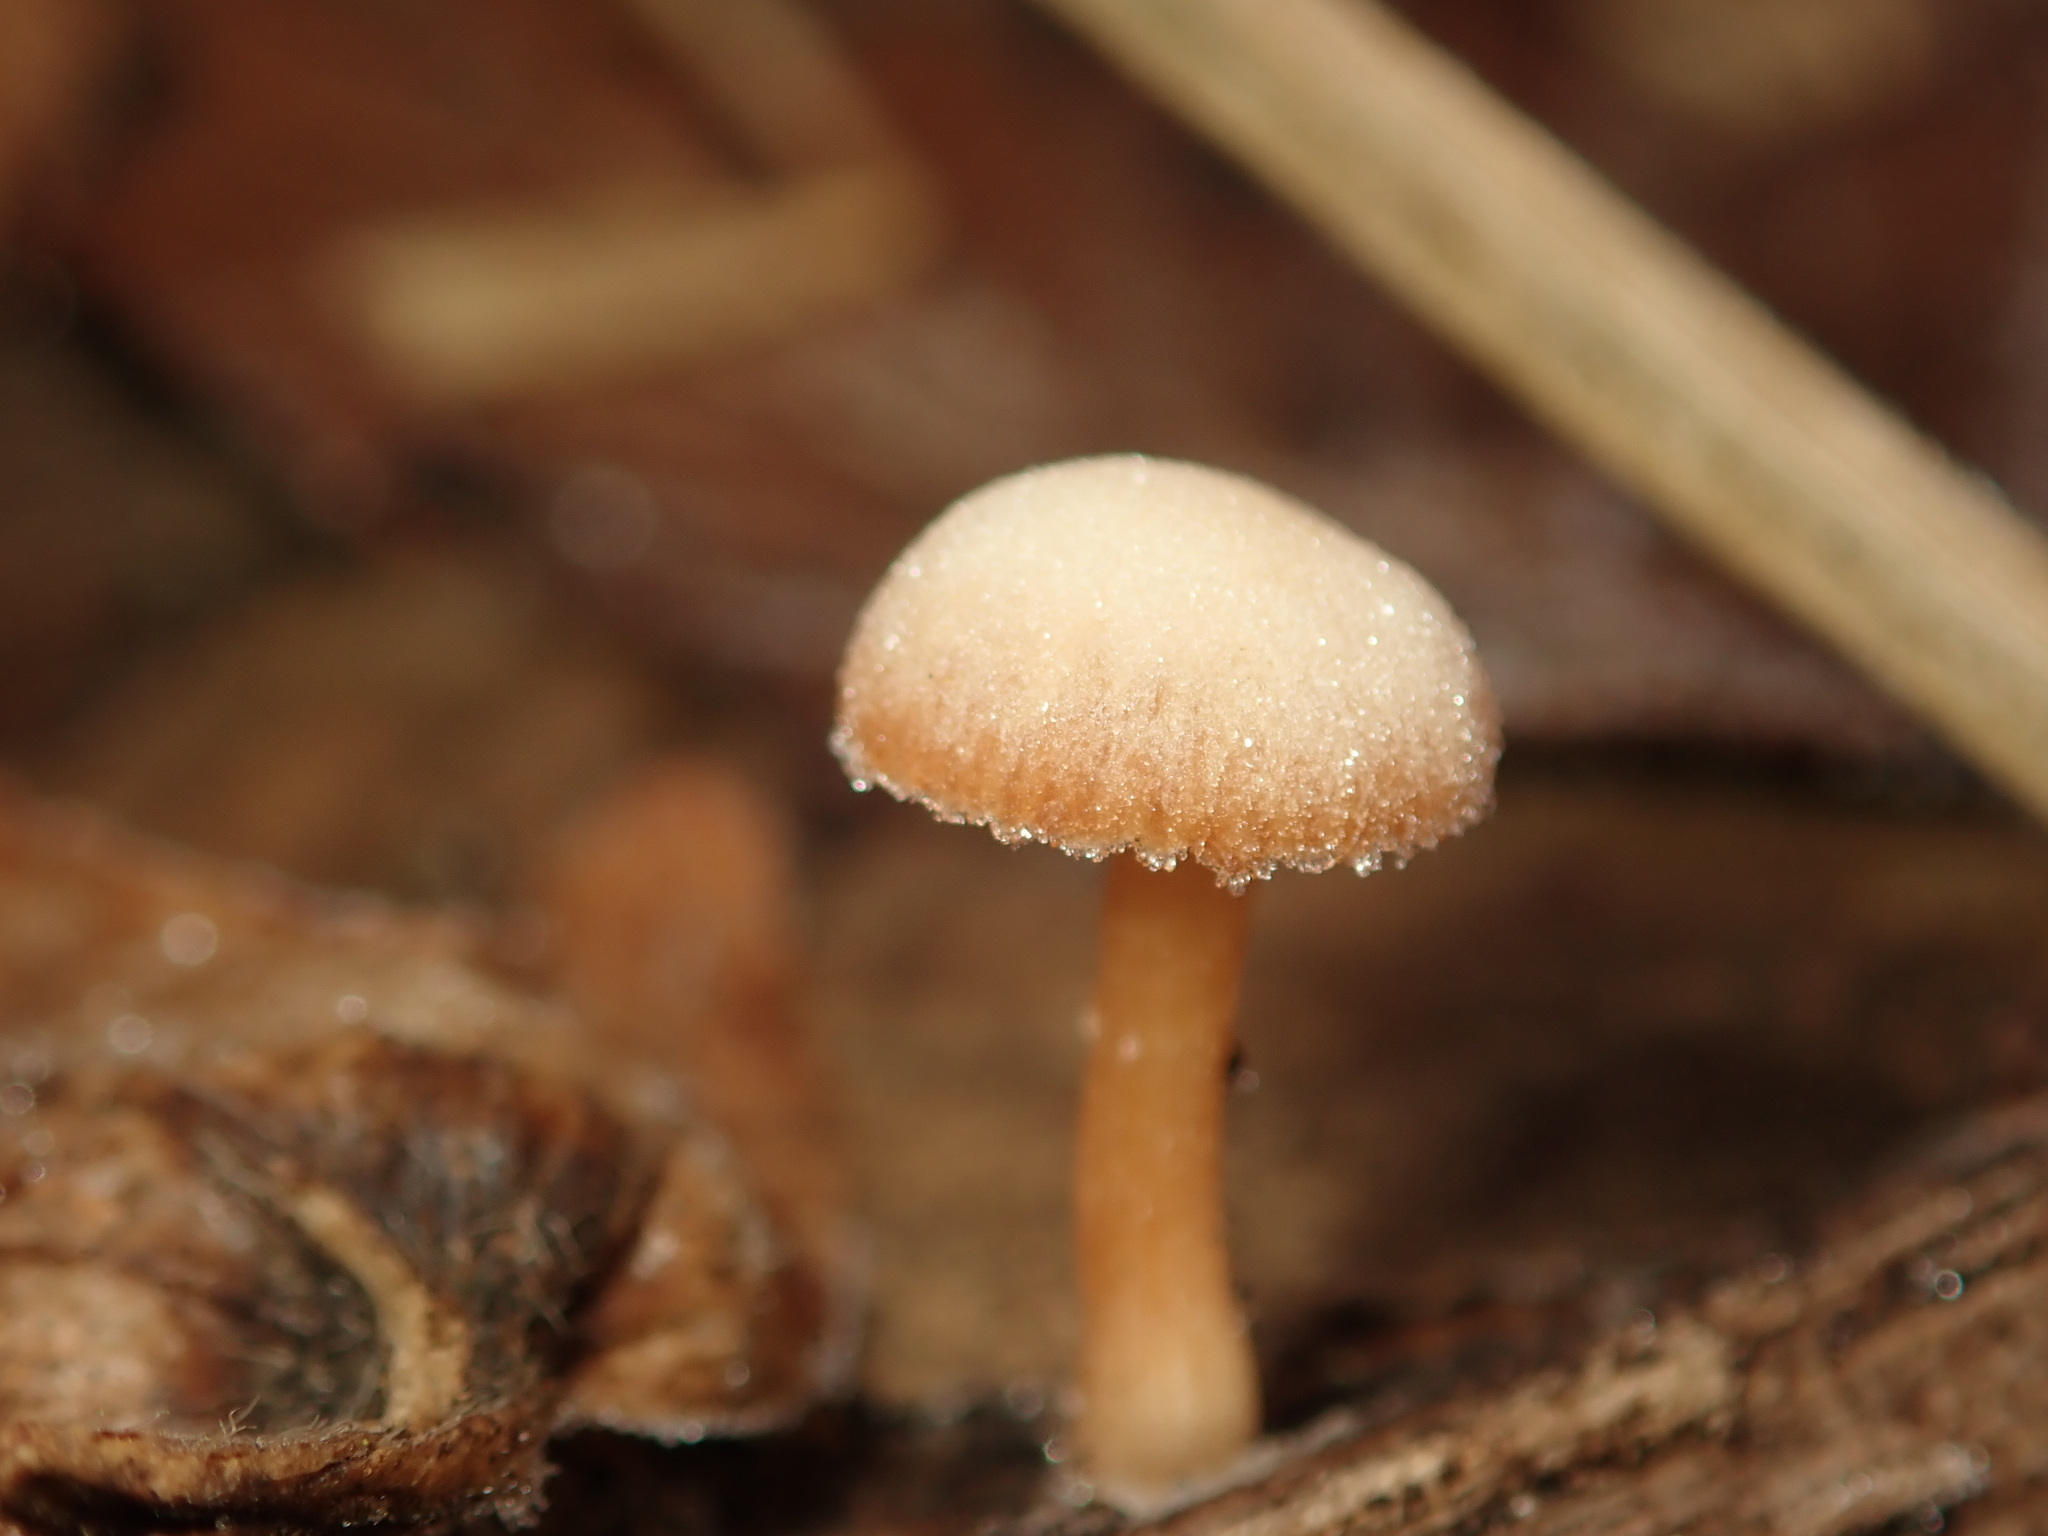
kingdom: Fungi
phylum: Basidiomycota
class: Agaricomycetes
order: Agaricales
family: Tubariaceae
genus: Tubaria
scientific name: Tubaria furfuracea
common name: Scurfy twiglet
